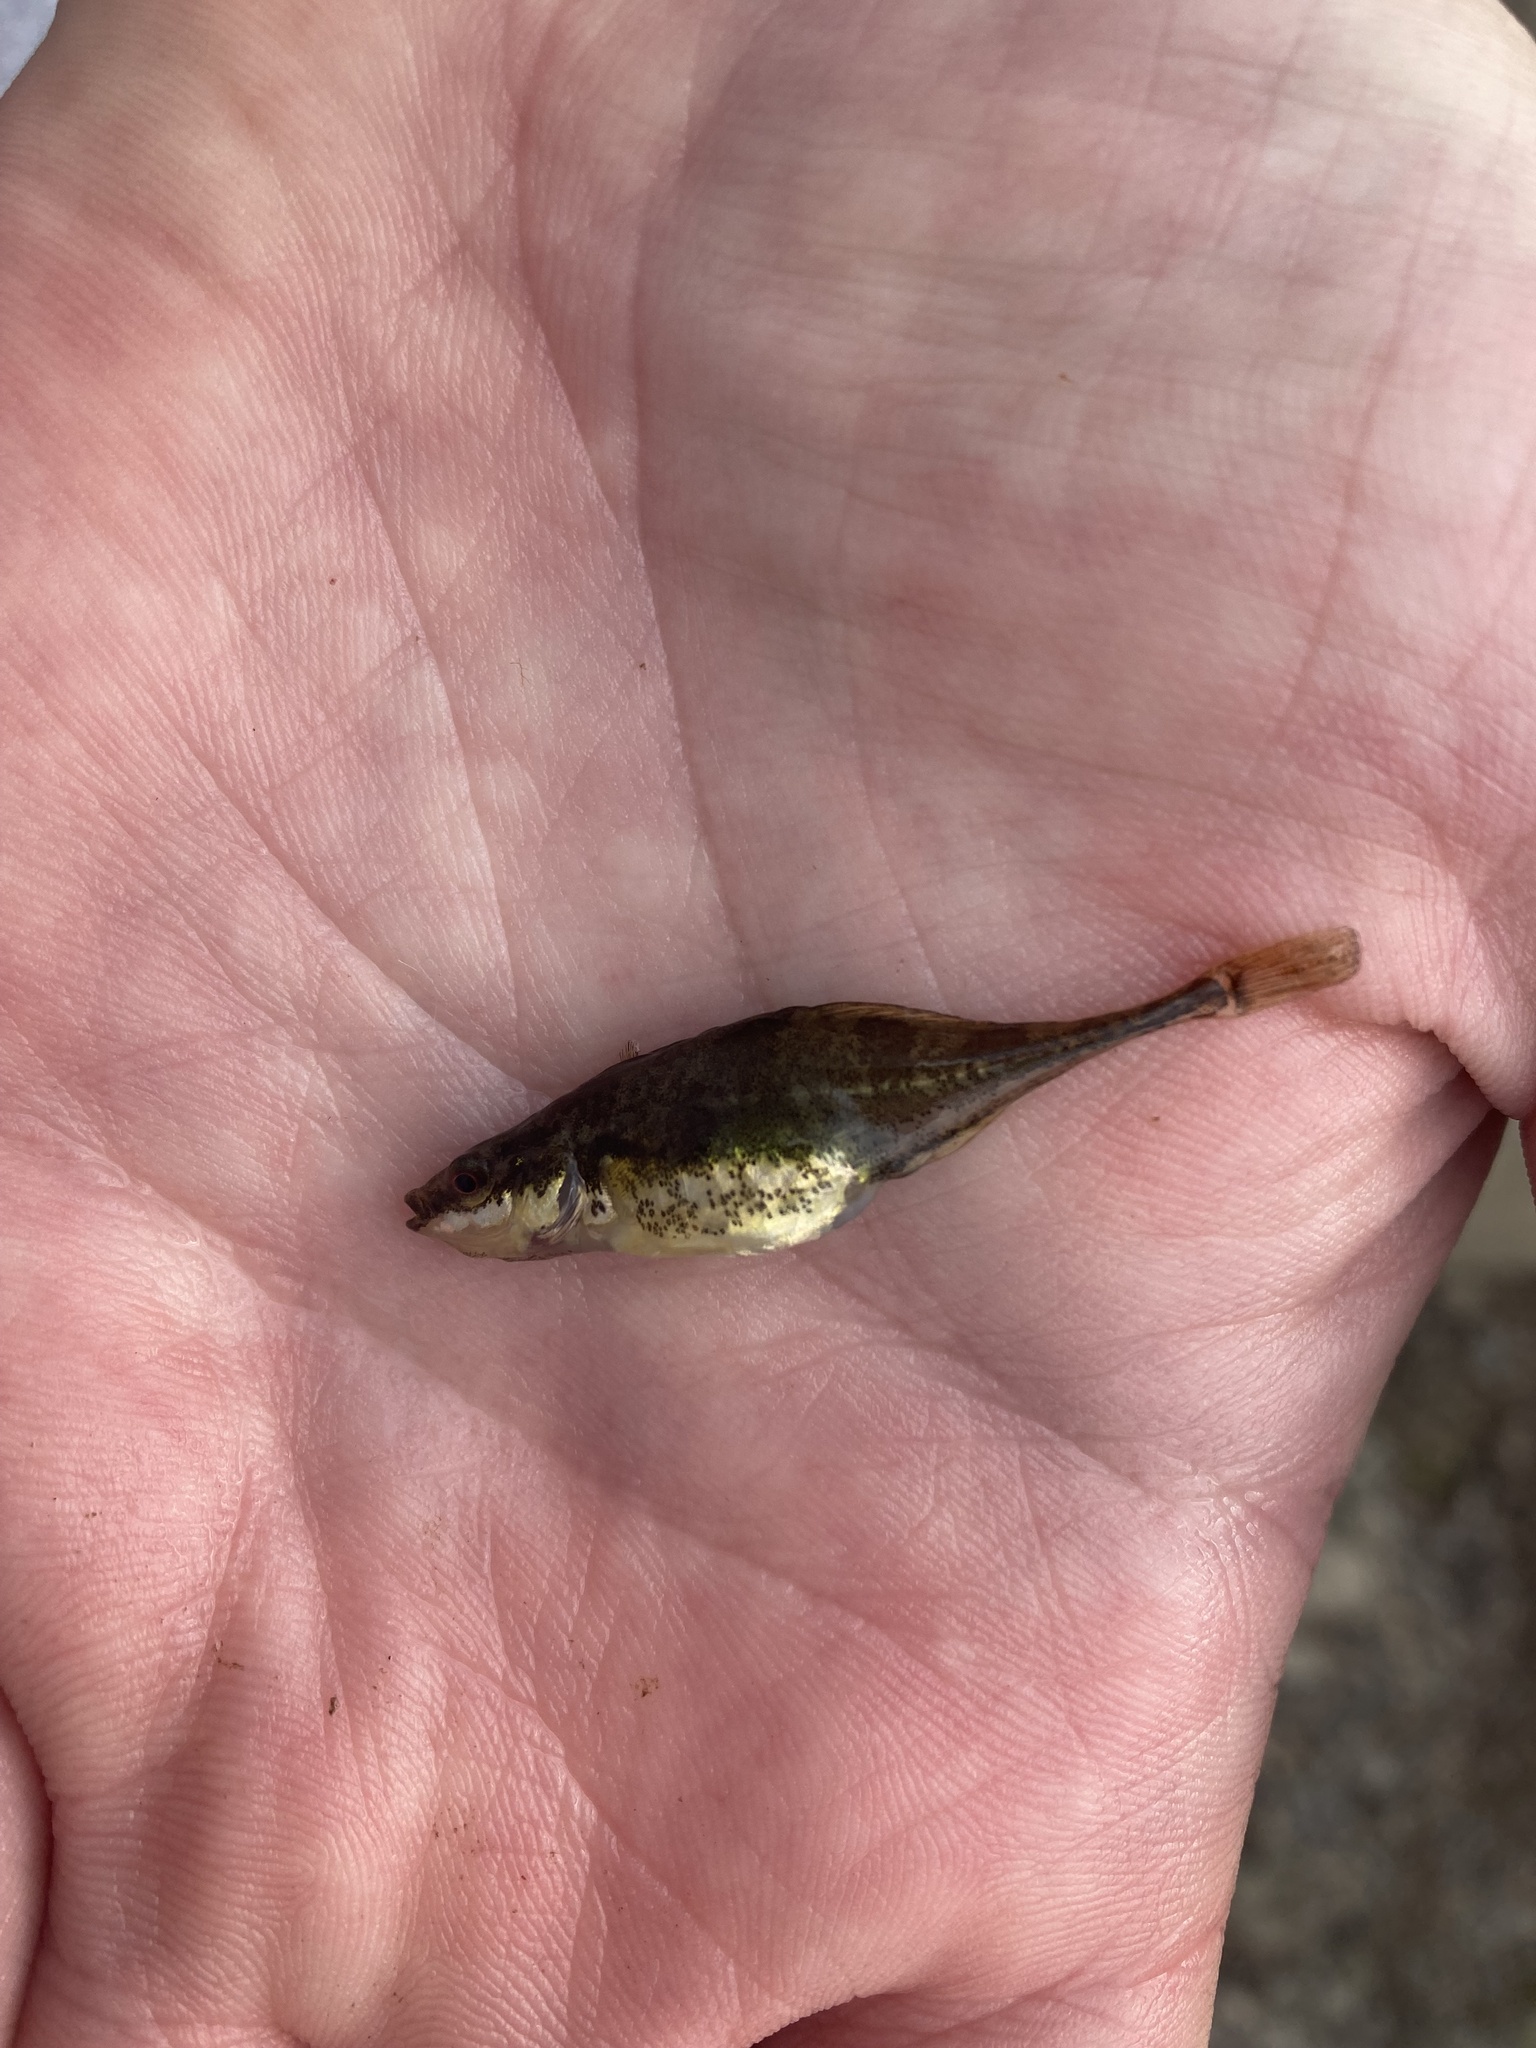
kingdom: Animalia
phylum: Chordata
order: Gasterosteiformes
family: Gasterosteidae
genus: Apeltes
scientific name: Apeltes quadracus
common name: Fourspine stickleback
